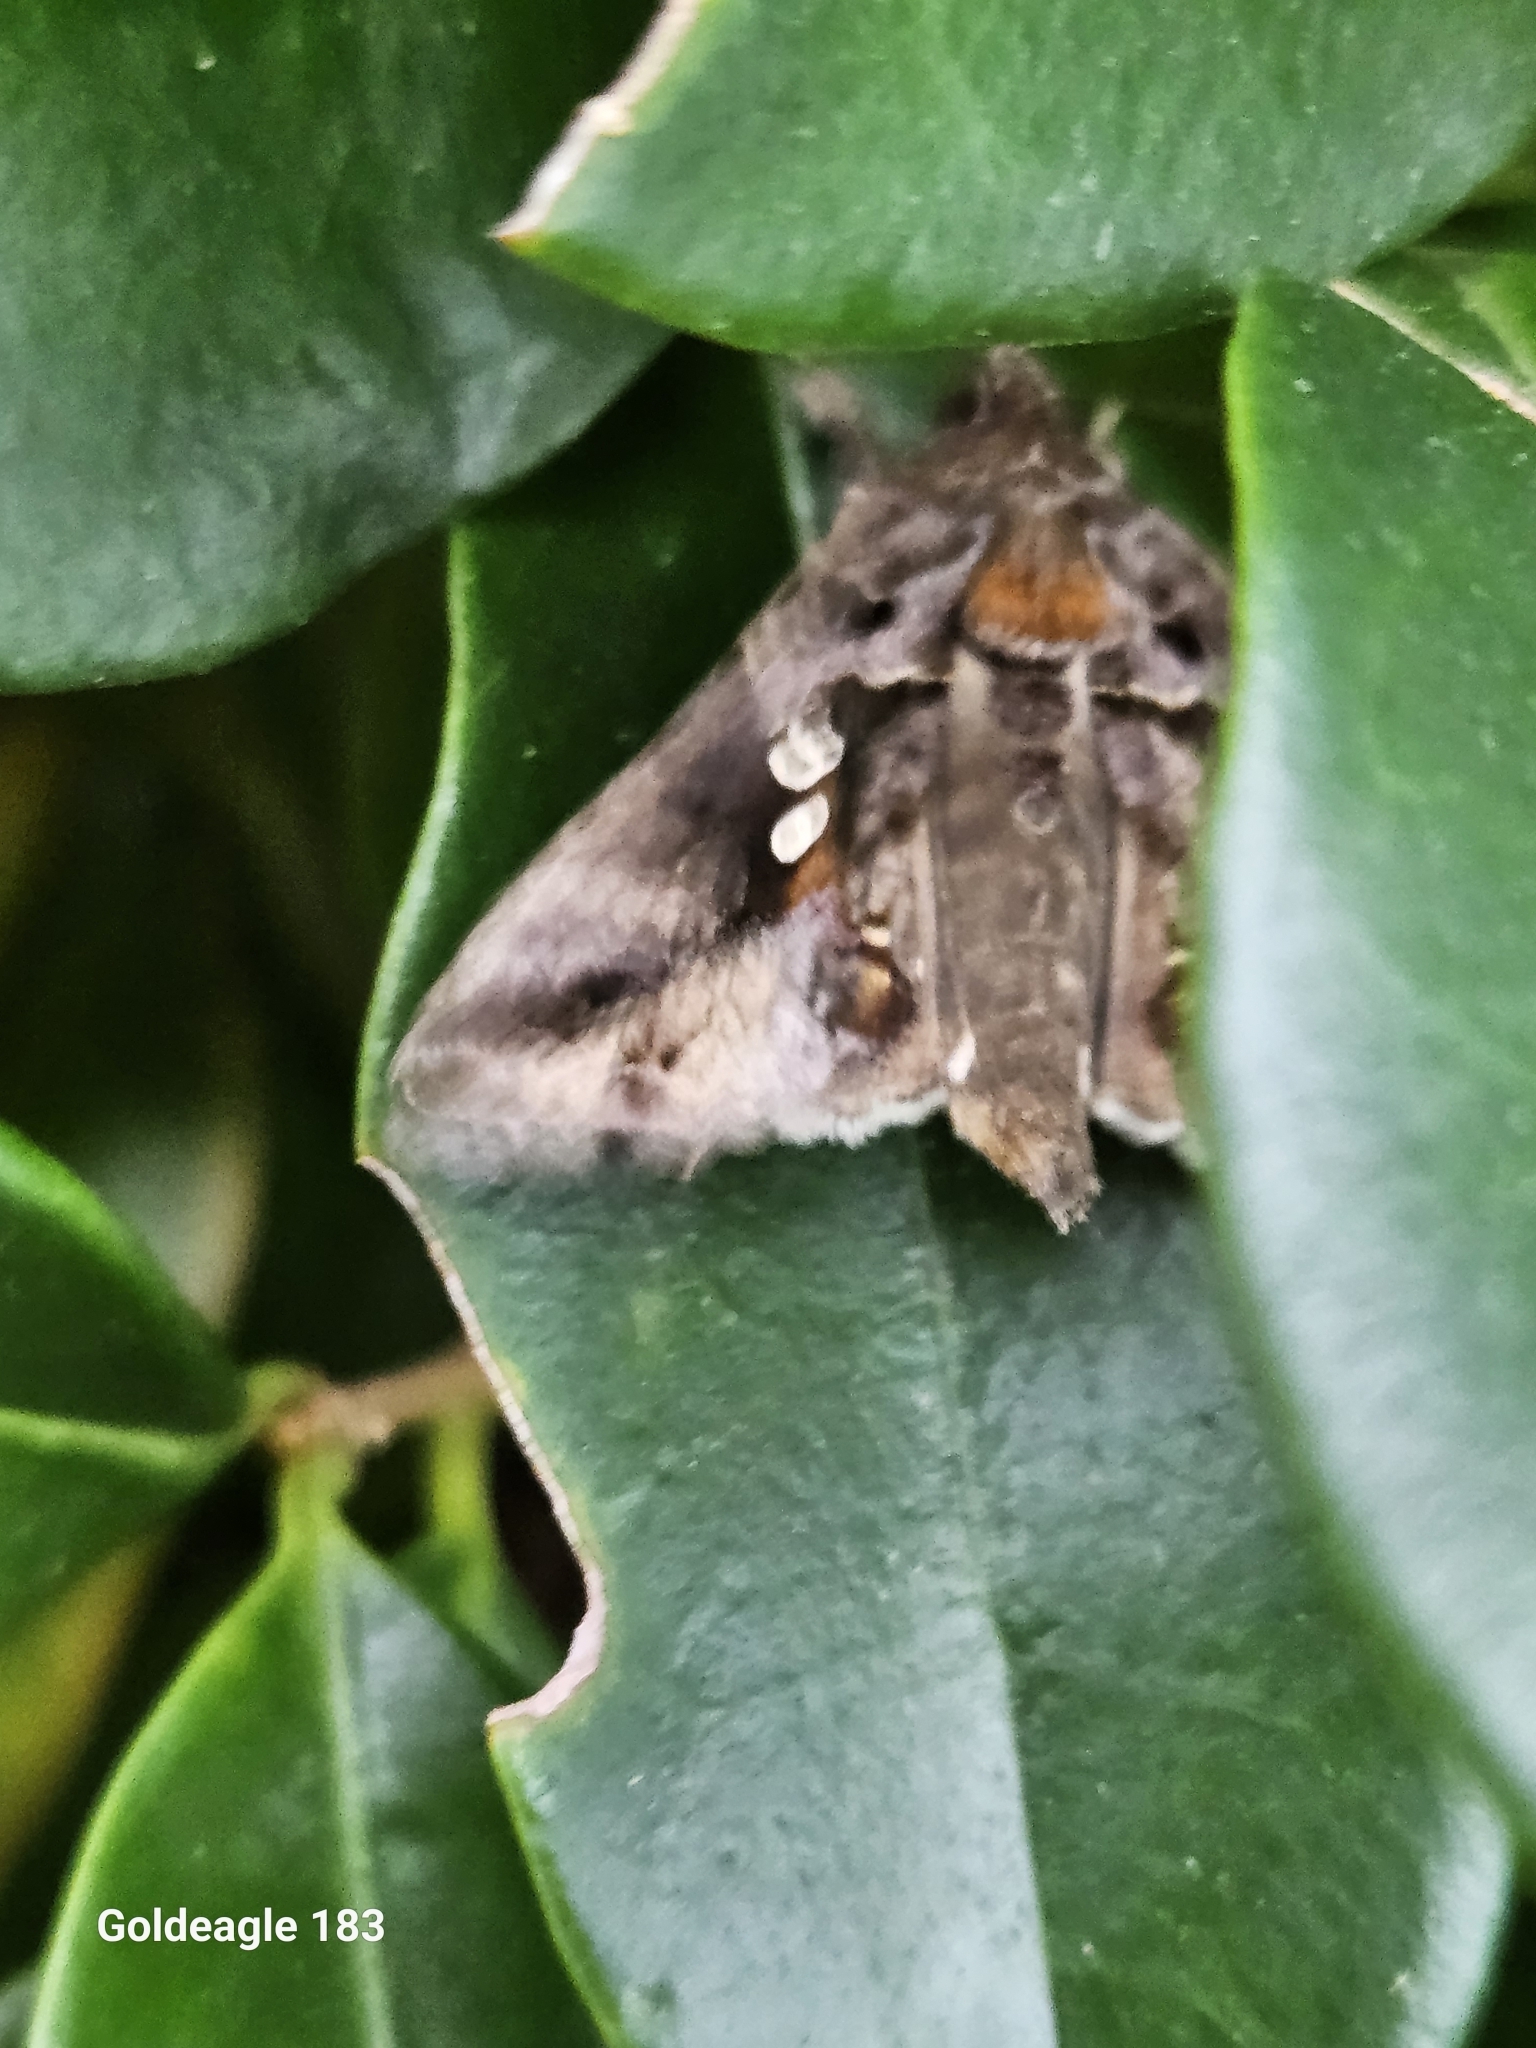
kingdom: Animalia
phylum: Arthropoda
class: Insecta
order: Lepidoptera
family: Noctuidae
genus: Chrysodeixis
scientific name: Chrysodeixis includens
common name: Cutworm moth
